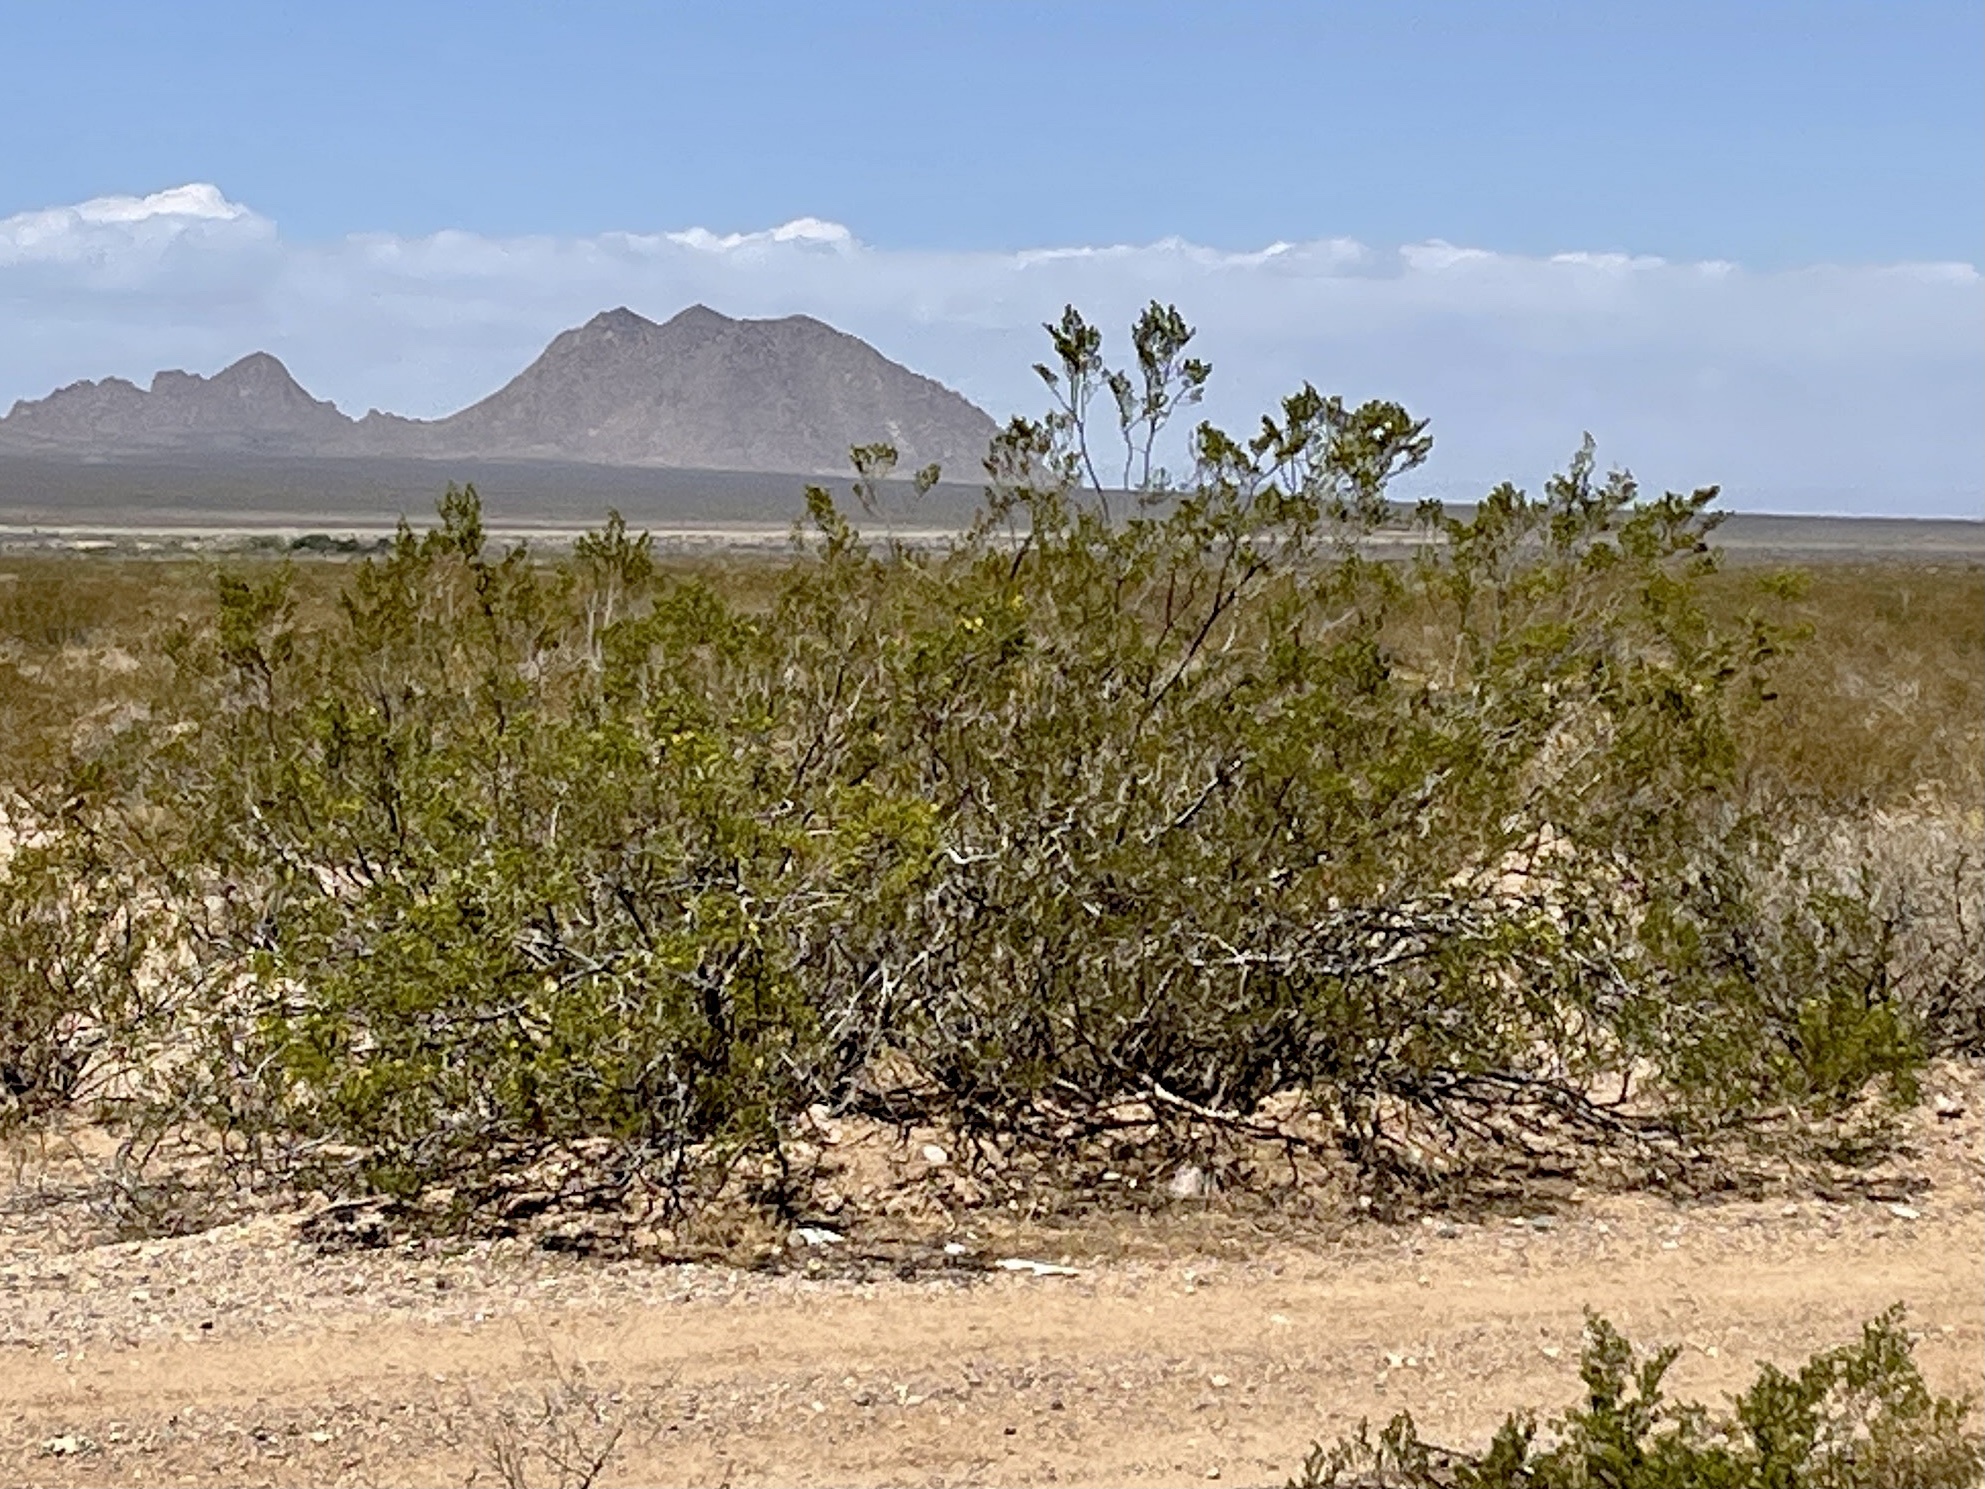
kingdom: Plantae
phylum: Tracheophyta
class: Magnoliopsida
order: Zygophyllales
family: Zygophyllaceae
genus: Larrea
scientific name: Larrea tridentata
